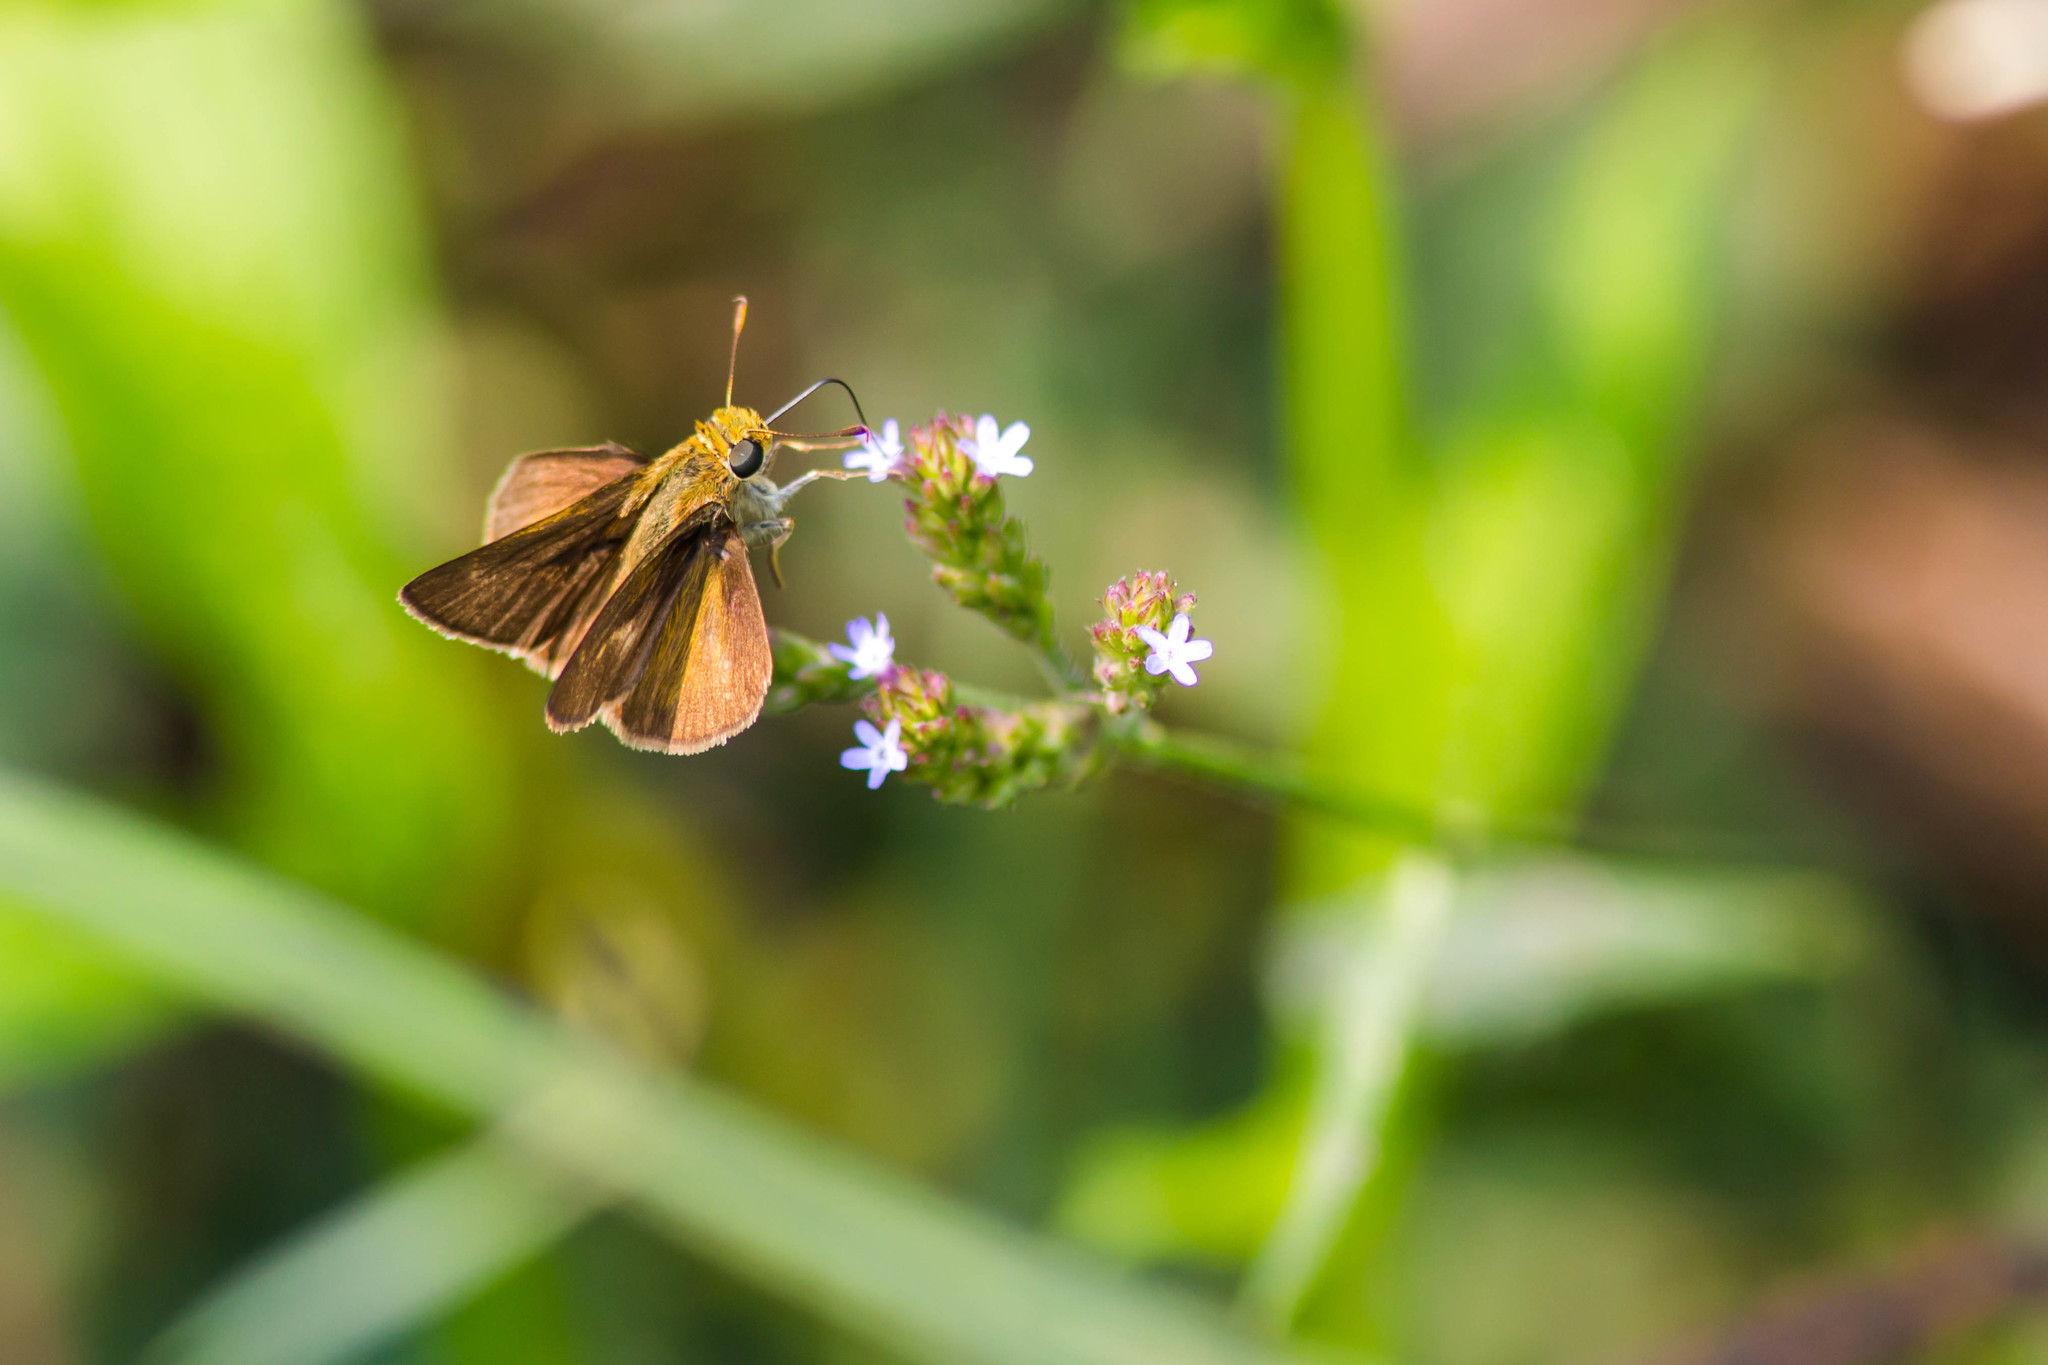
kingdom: Animalia
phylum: Arthropoda
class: Insecta
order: Lepidoptera
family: Hesperiidae
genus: Vernia
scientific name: Vernia verna
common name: Little glassywing
